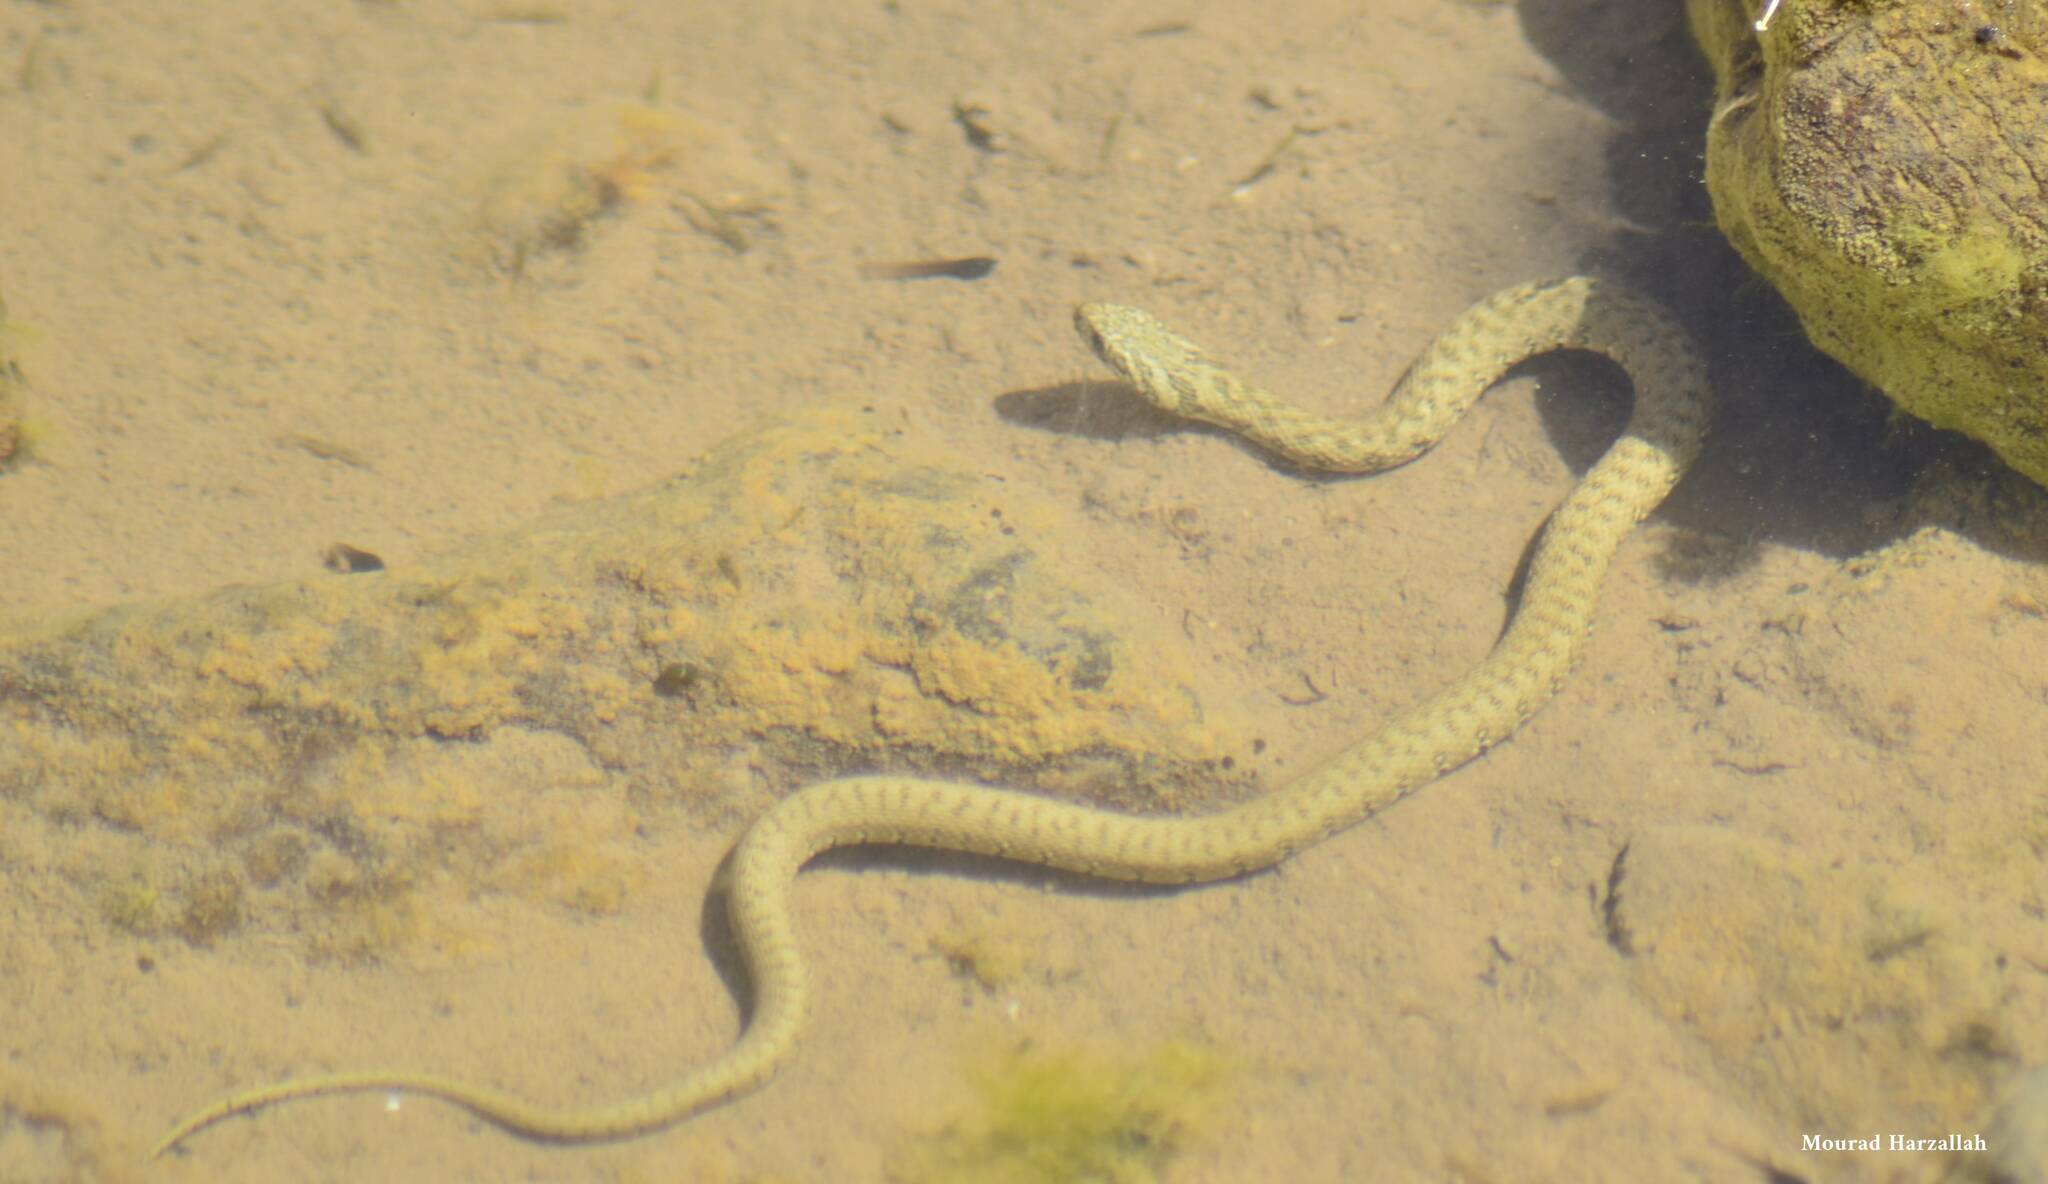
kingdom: Animalia
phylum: Chordata
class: Squamata
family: Colubridae
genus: Natrix
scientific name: Natrix maura
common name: Viperine water snake
